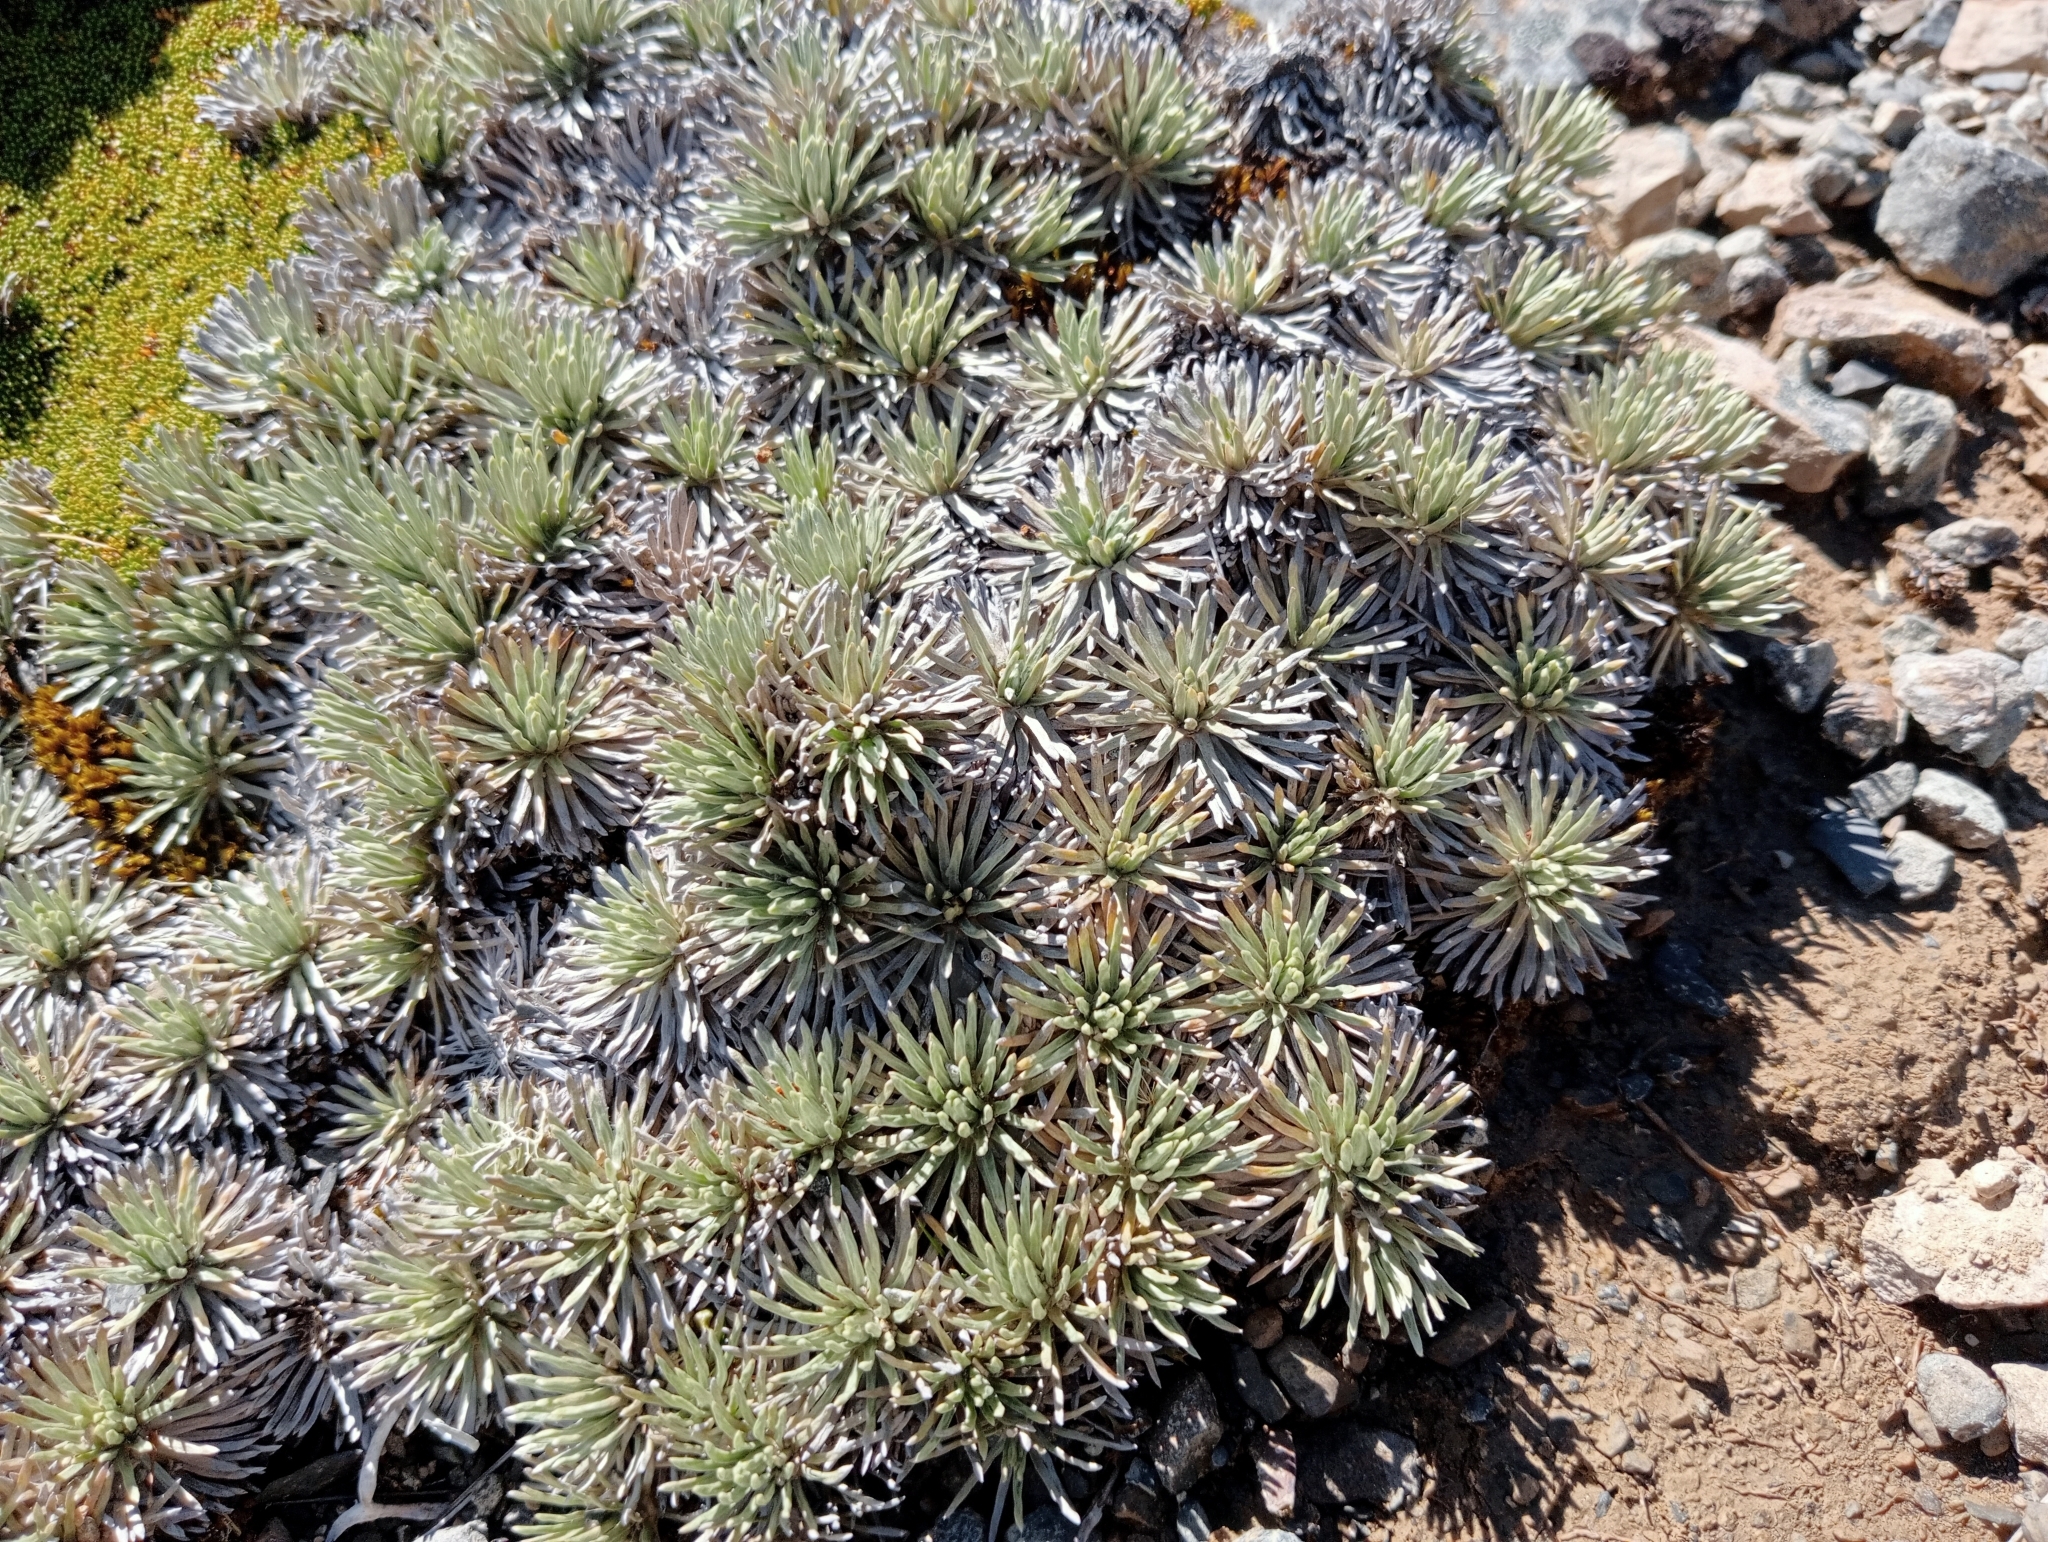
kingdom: Plantae
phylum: Tracheophyta
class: Magnoliopsida
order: Asterales
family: Asteraceae
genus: Celmisia
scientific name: Celmisia sessiliflora
